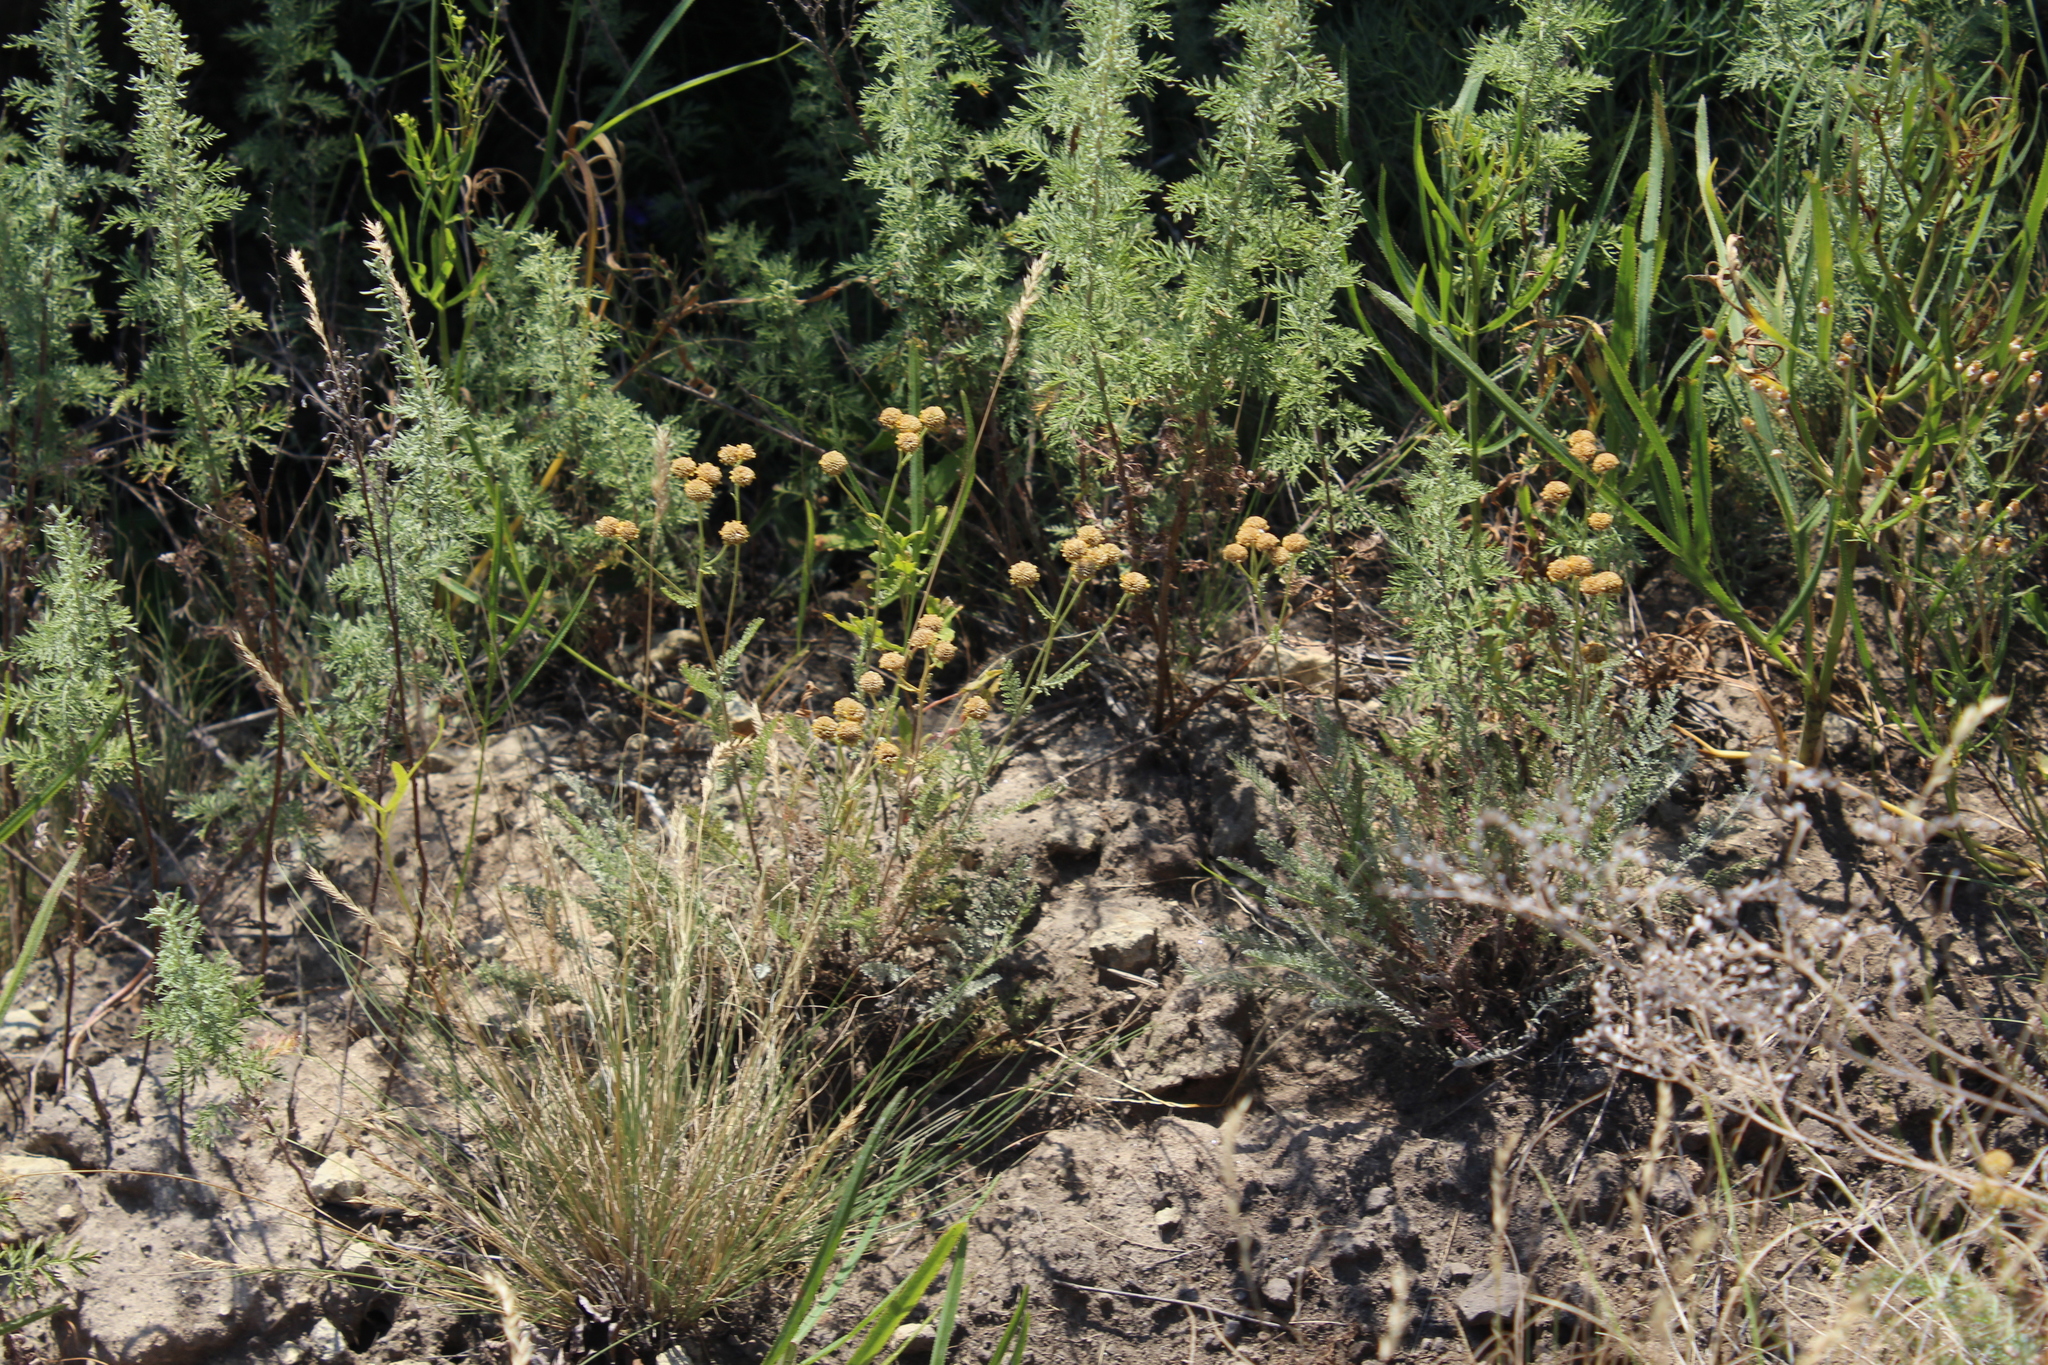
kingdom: Plantae
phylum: Tracheophyta
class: Magnoliopsida
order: Asterales
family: Asteraceae
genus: Tanacetum
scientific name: Tanacetum millefolium
